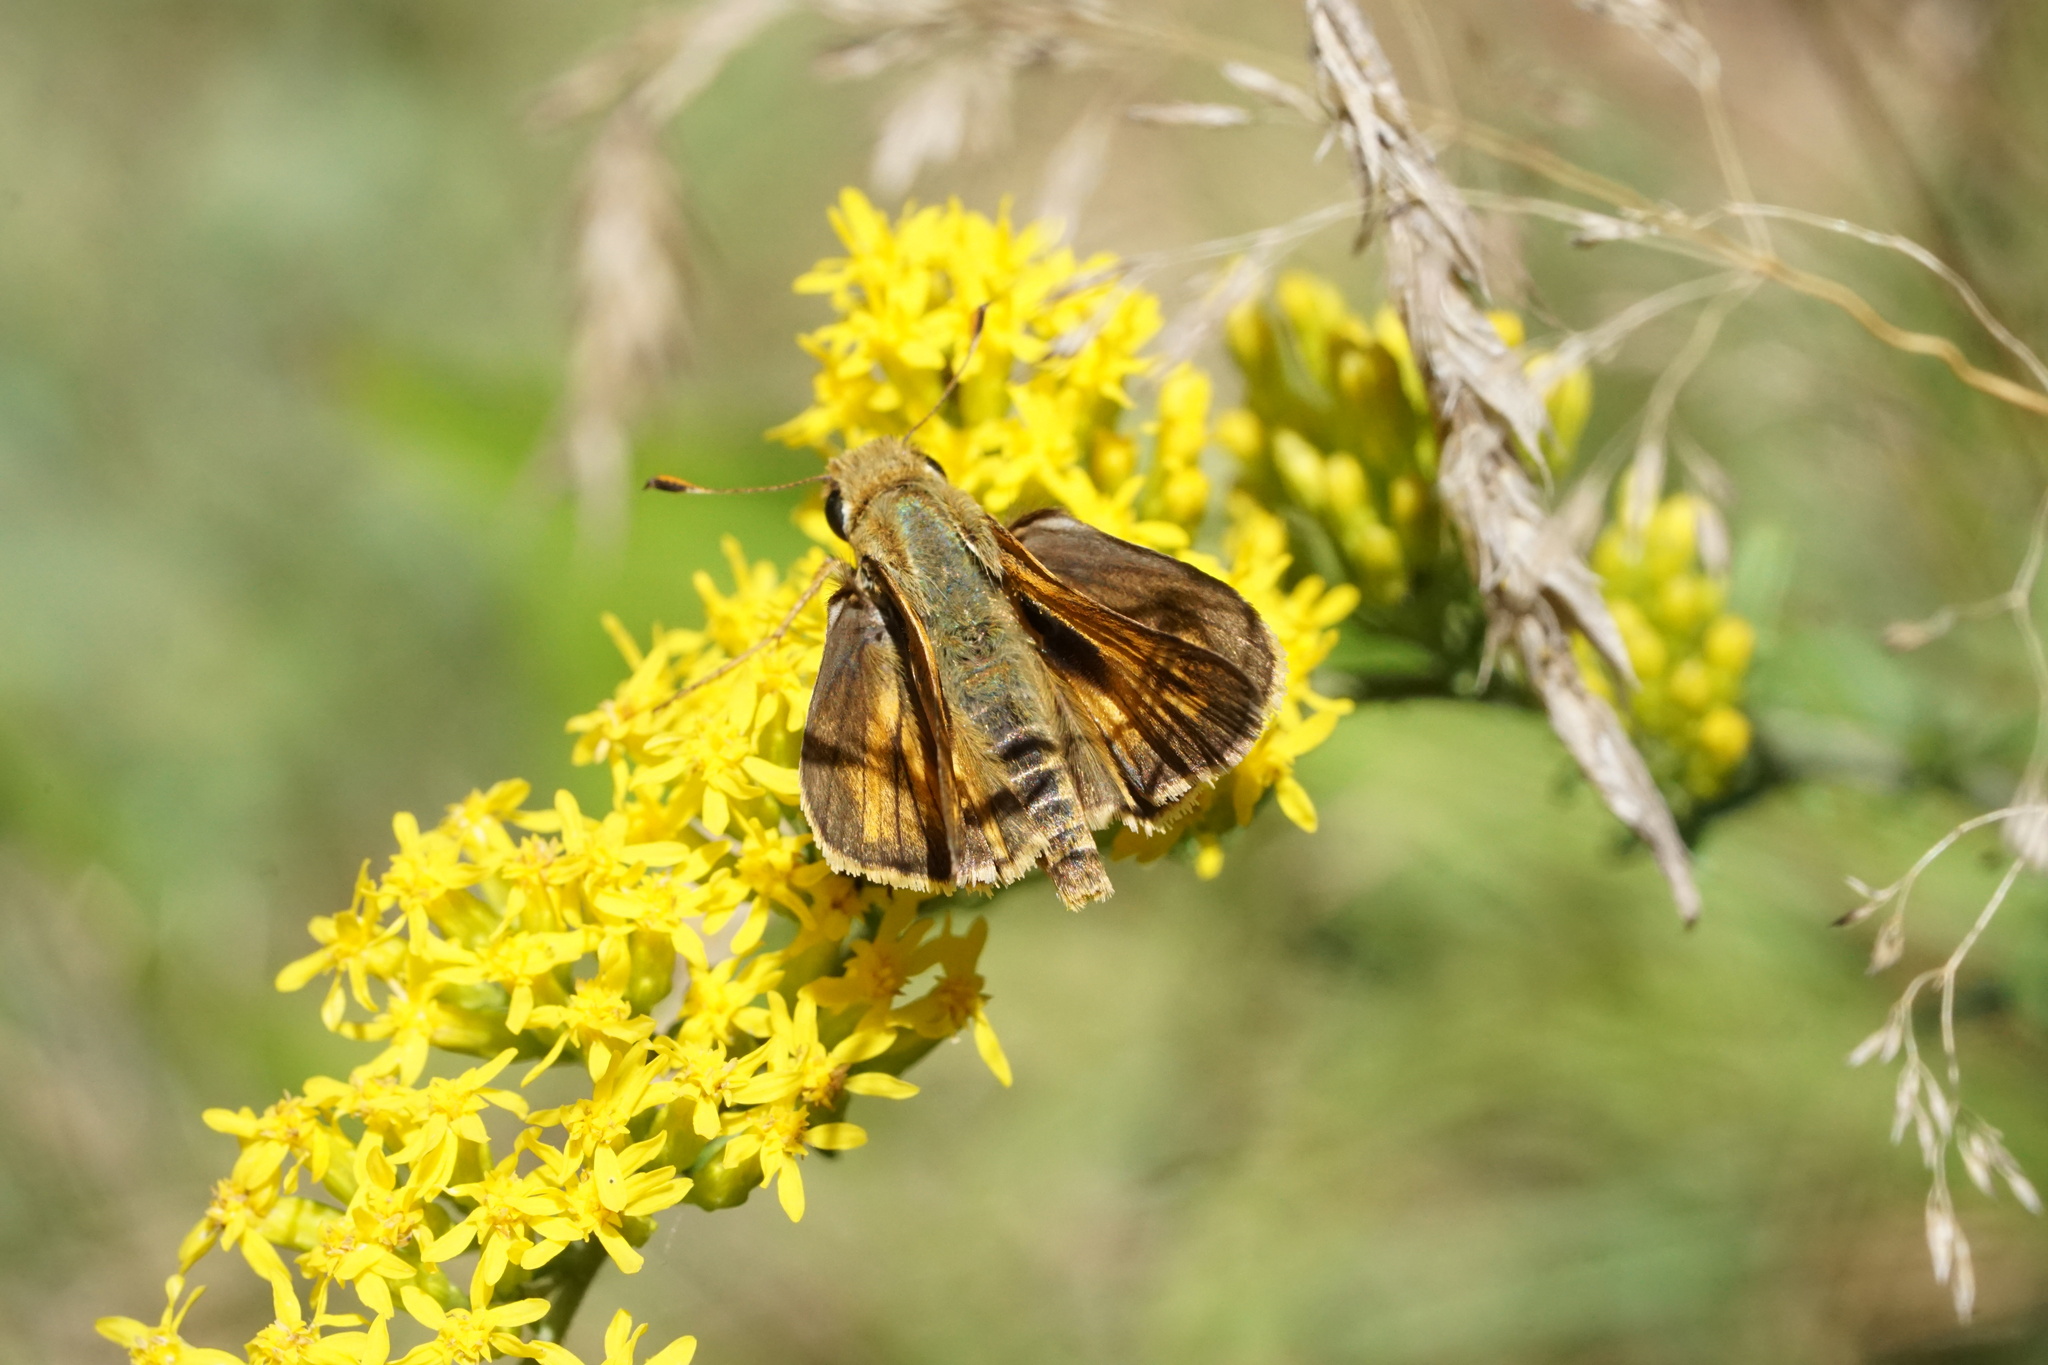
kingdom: Animalia
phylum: Arthropoda
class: Insecta
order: Lepidoptera
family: Hesperiidae
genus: Atalopedes
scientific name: Atalopedes
